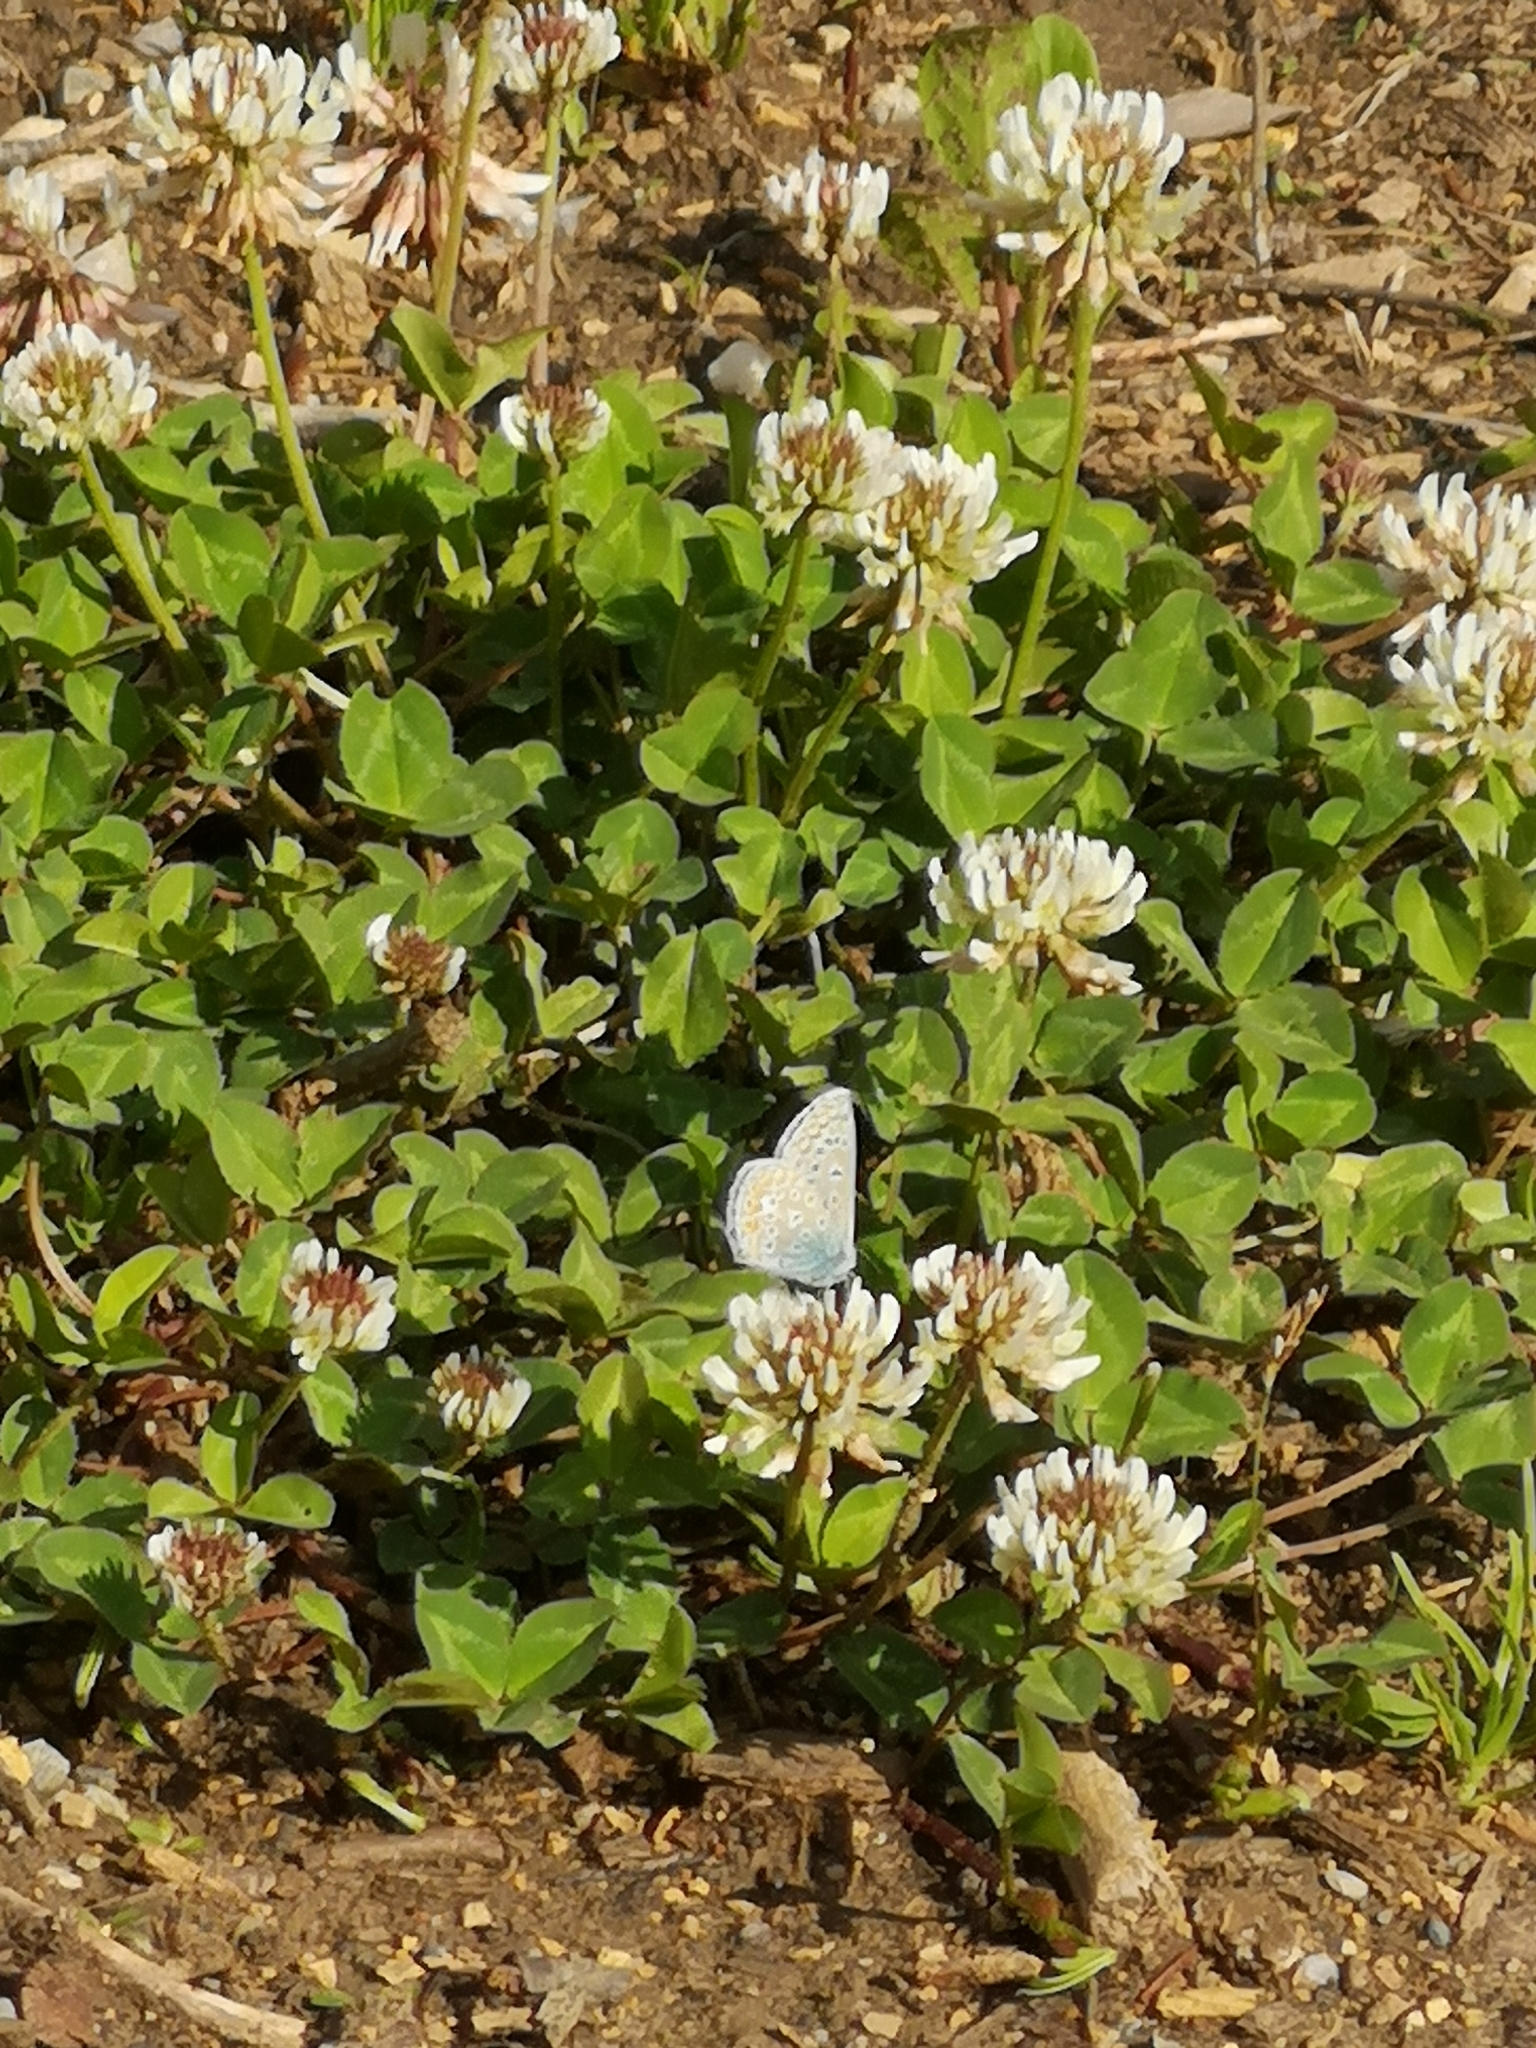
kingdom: Animalia
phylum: Arthropoda
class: Insecta
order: Lepidoptera
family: Lycaenidae
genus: Polyommatus
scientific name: Polyommatus icarus
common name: Common blue
